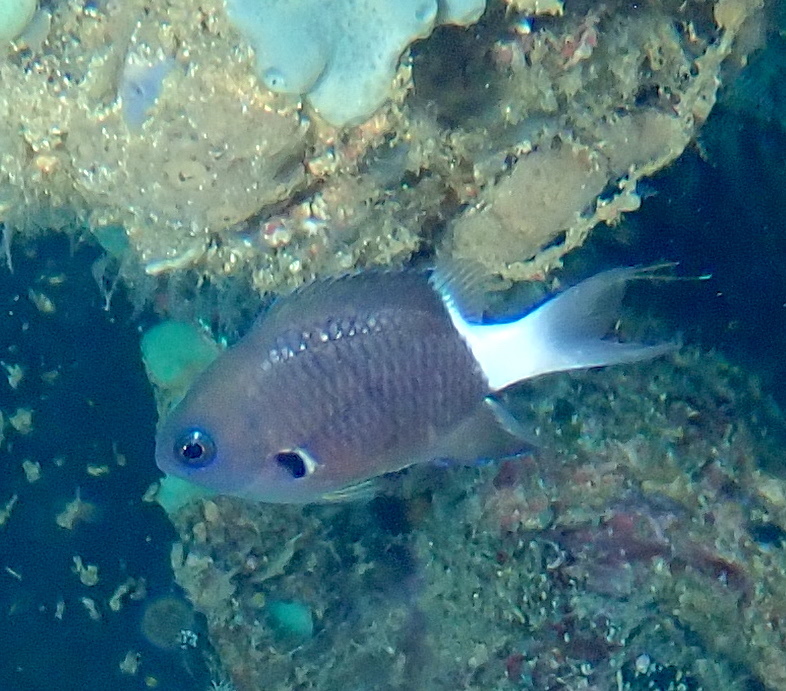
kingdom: Animalia
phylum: Chordata
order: Perciformes
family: Pomacentridae
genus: Pycnochromis
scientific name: Pycnochromis margaritifer
